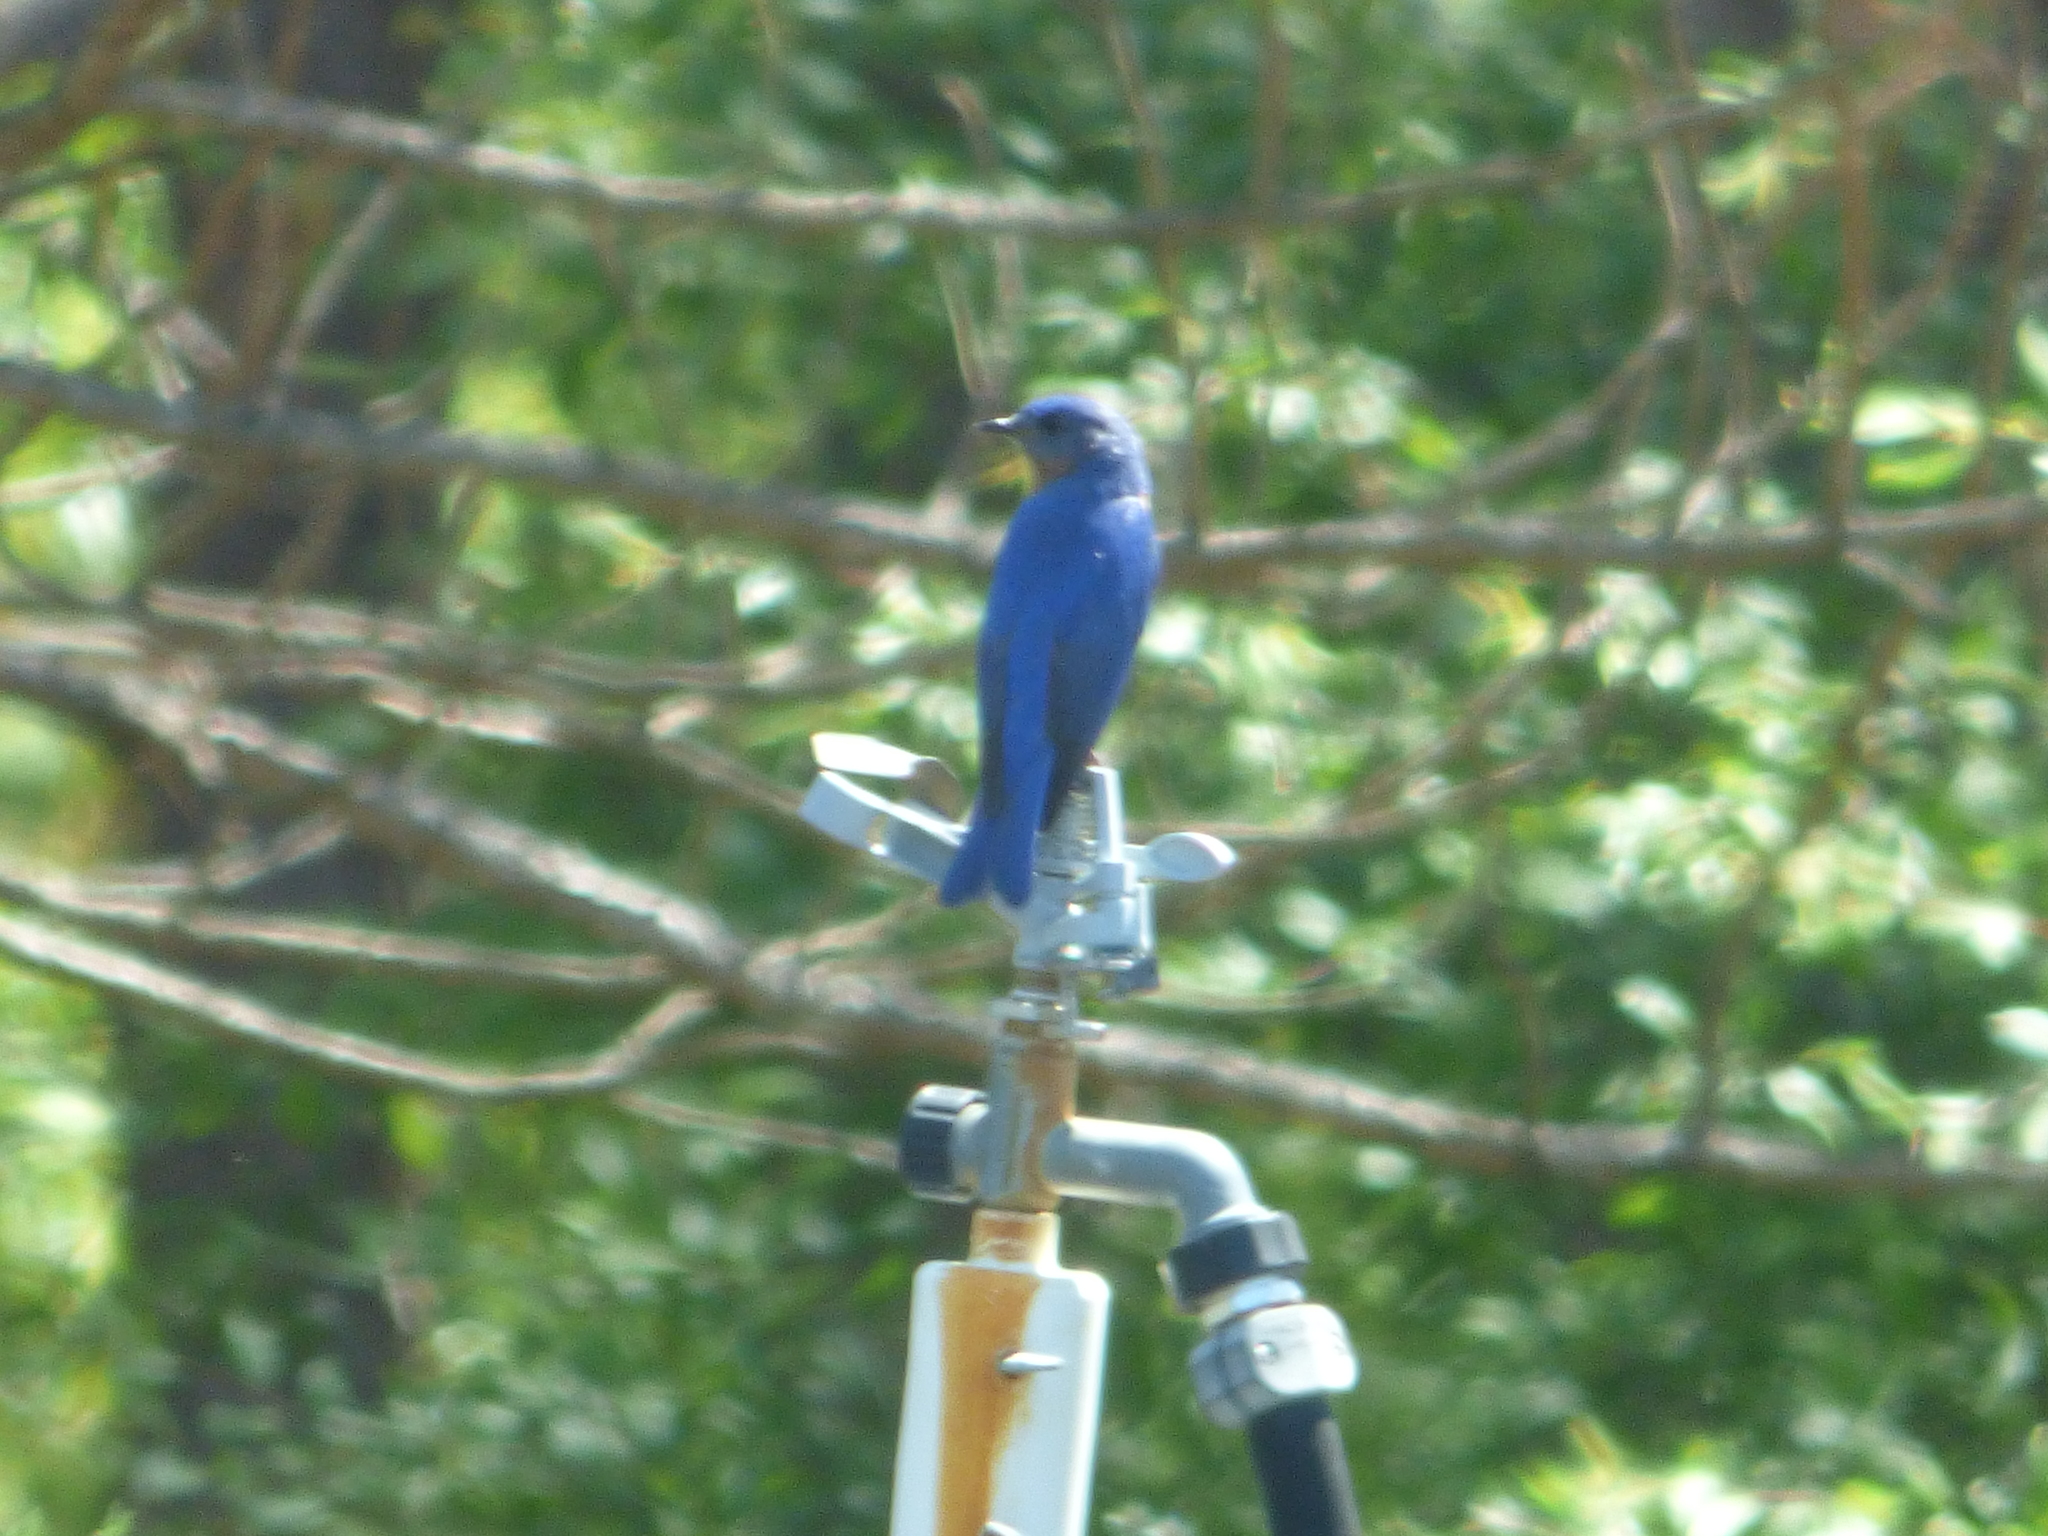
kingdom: Animalia
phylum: Chordata
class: Aves
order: Passeriformes
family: Turdidae
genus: Sialia
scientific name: Sialia sialis
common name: Eastern bluebird
